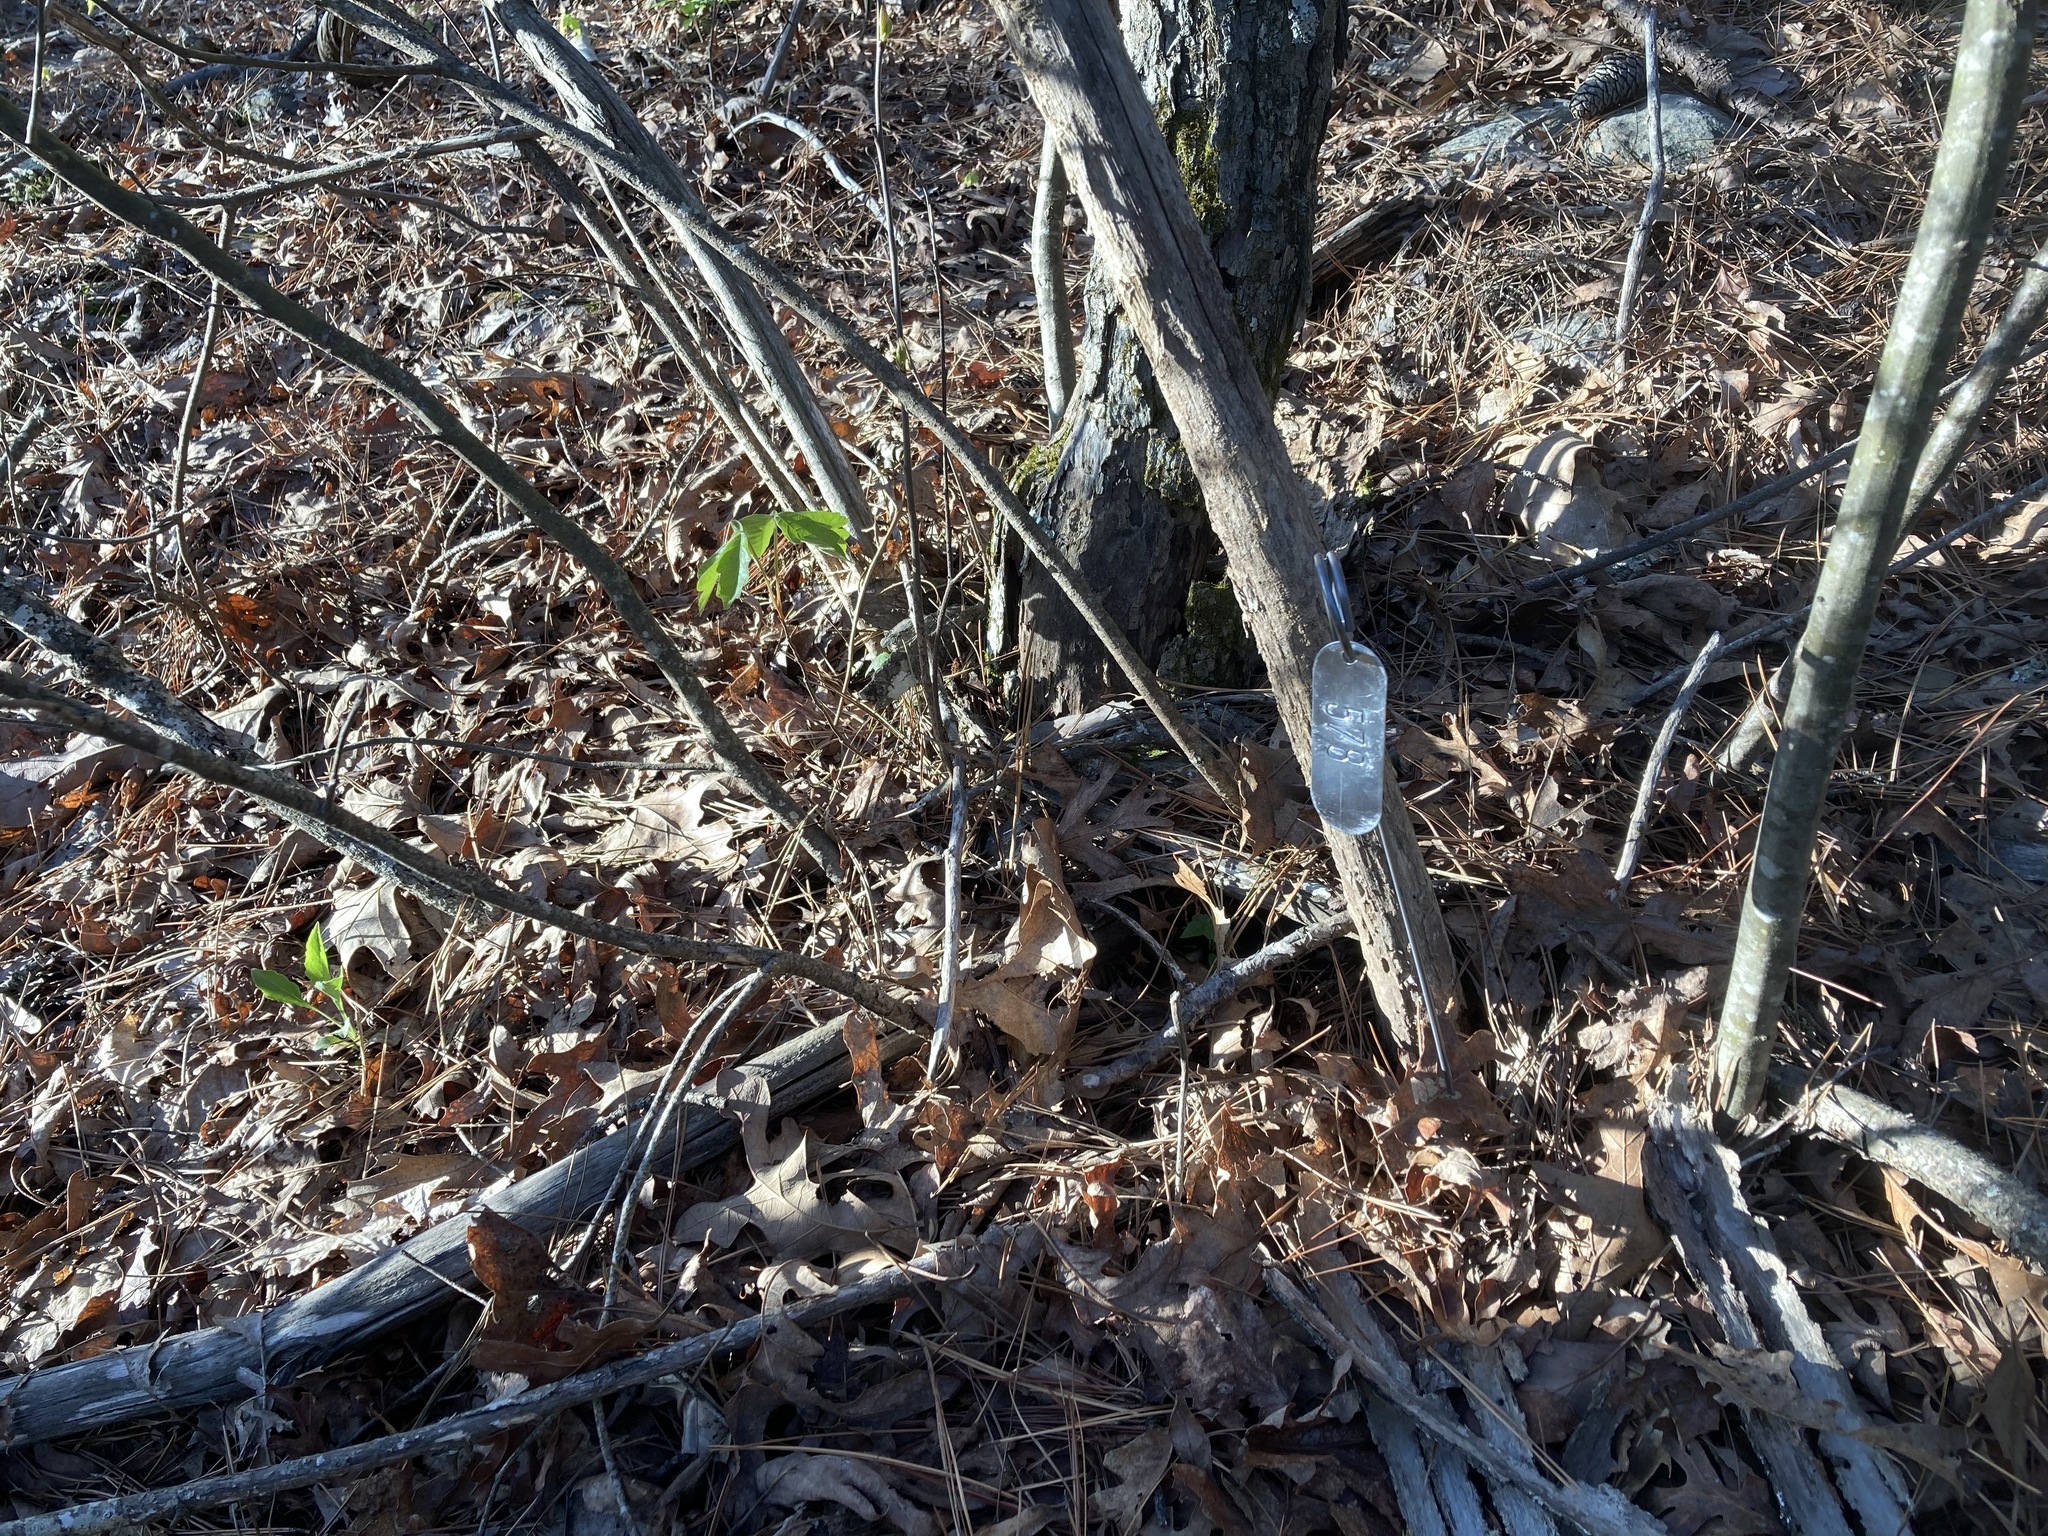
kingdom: Plantae
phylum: Tracheophyta
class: Magnoliopsida
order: Fagales
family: Fagaceae
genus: Castanea
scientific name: Castanea ozarkensis
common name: Ozark chinkapin
